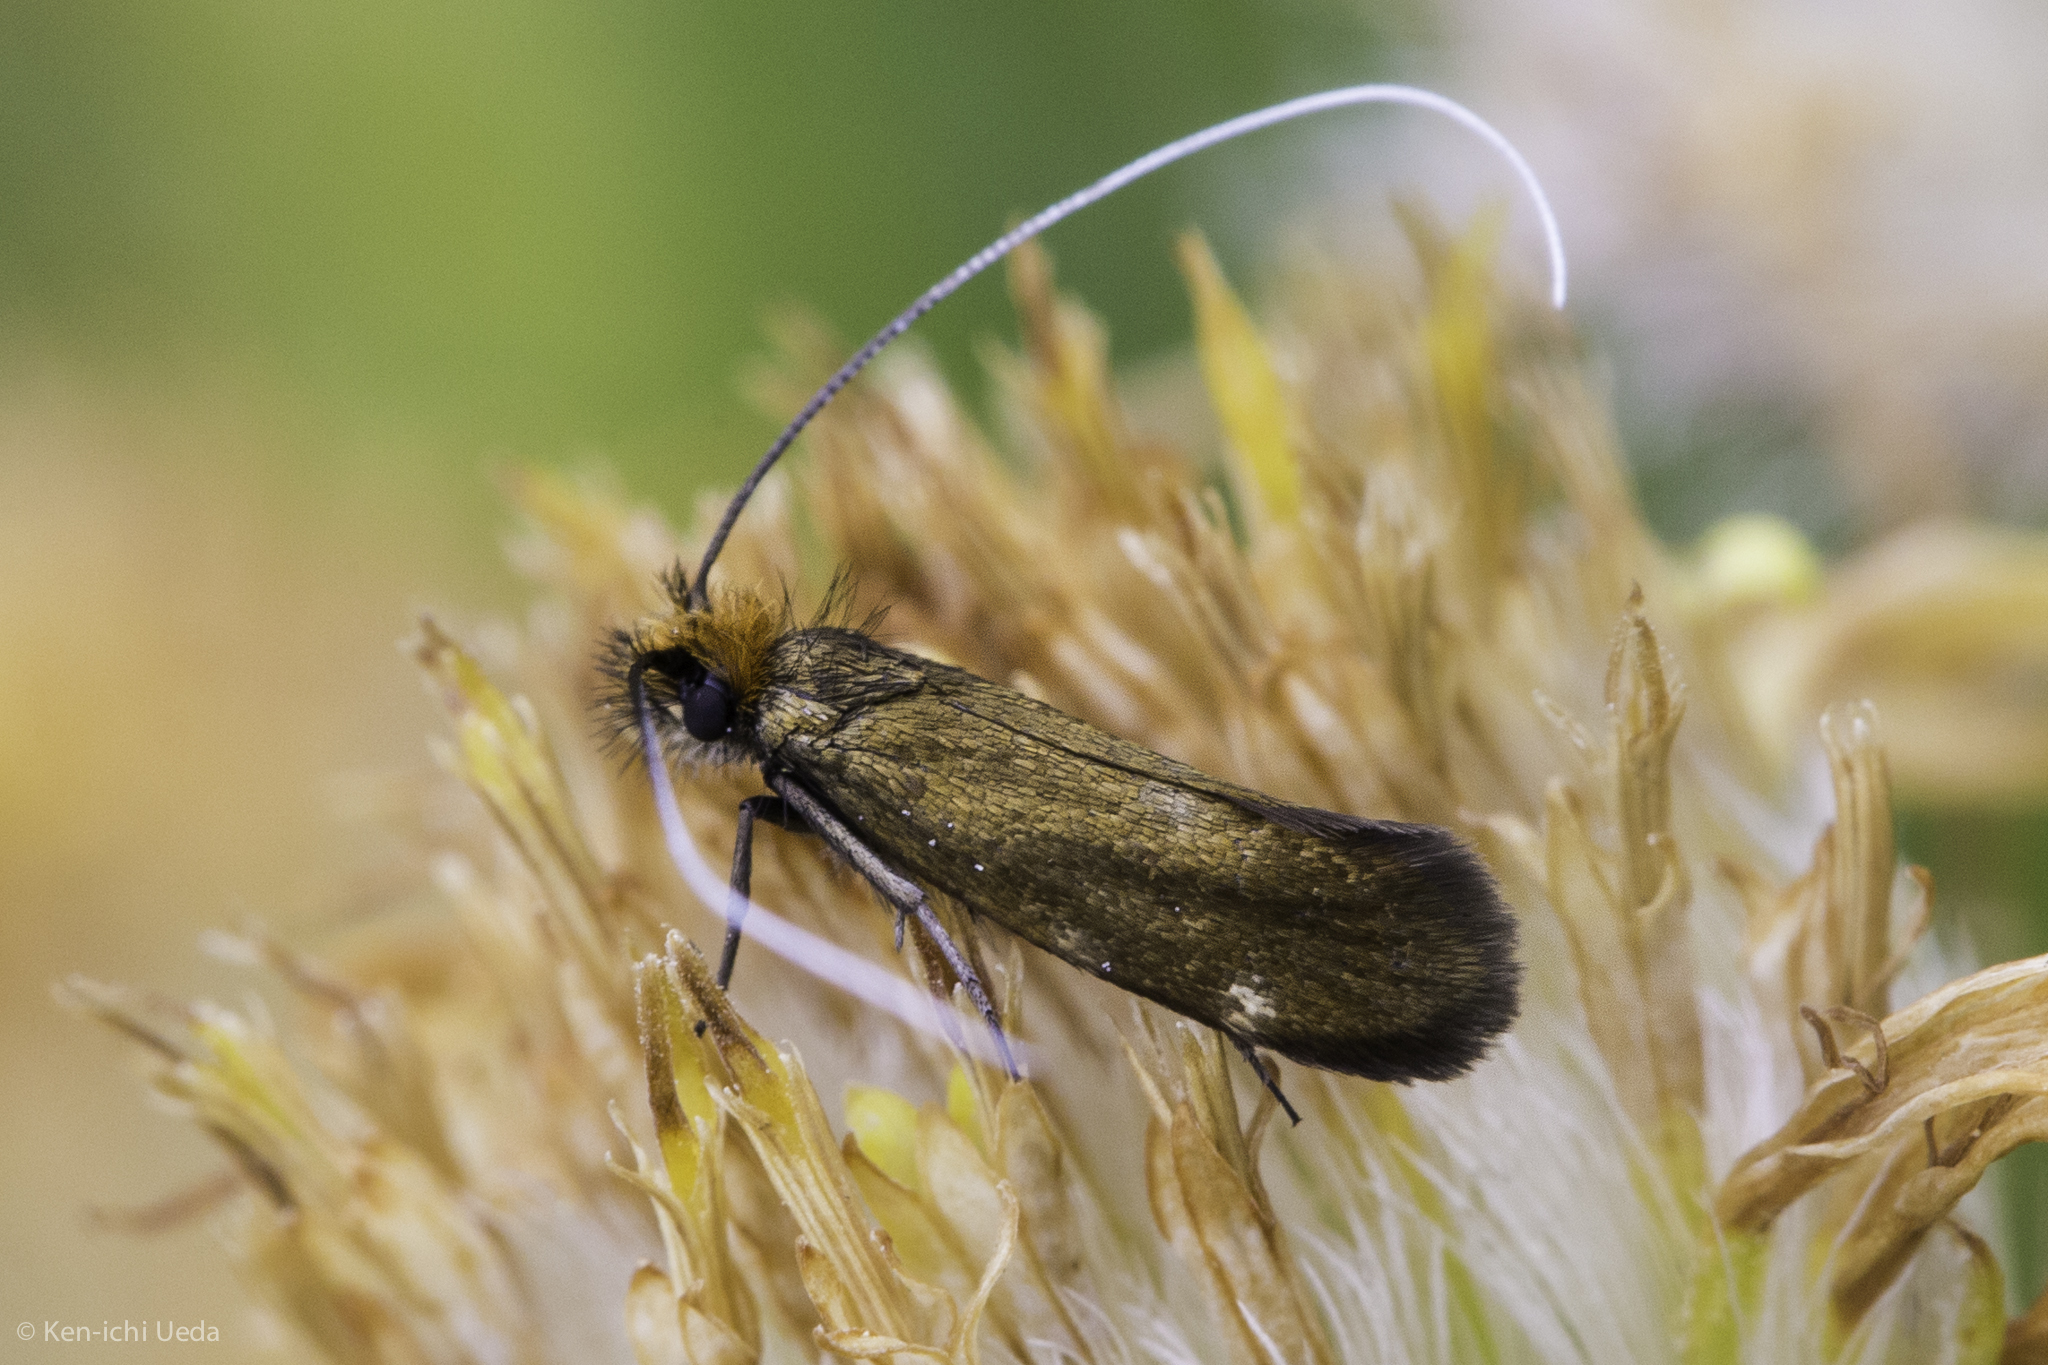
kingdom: Animalia
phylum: Arthropoda
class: Insecta
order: Lepidoptera
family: Adelidae
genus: Adela
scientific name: Adela flammeusella
